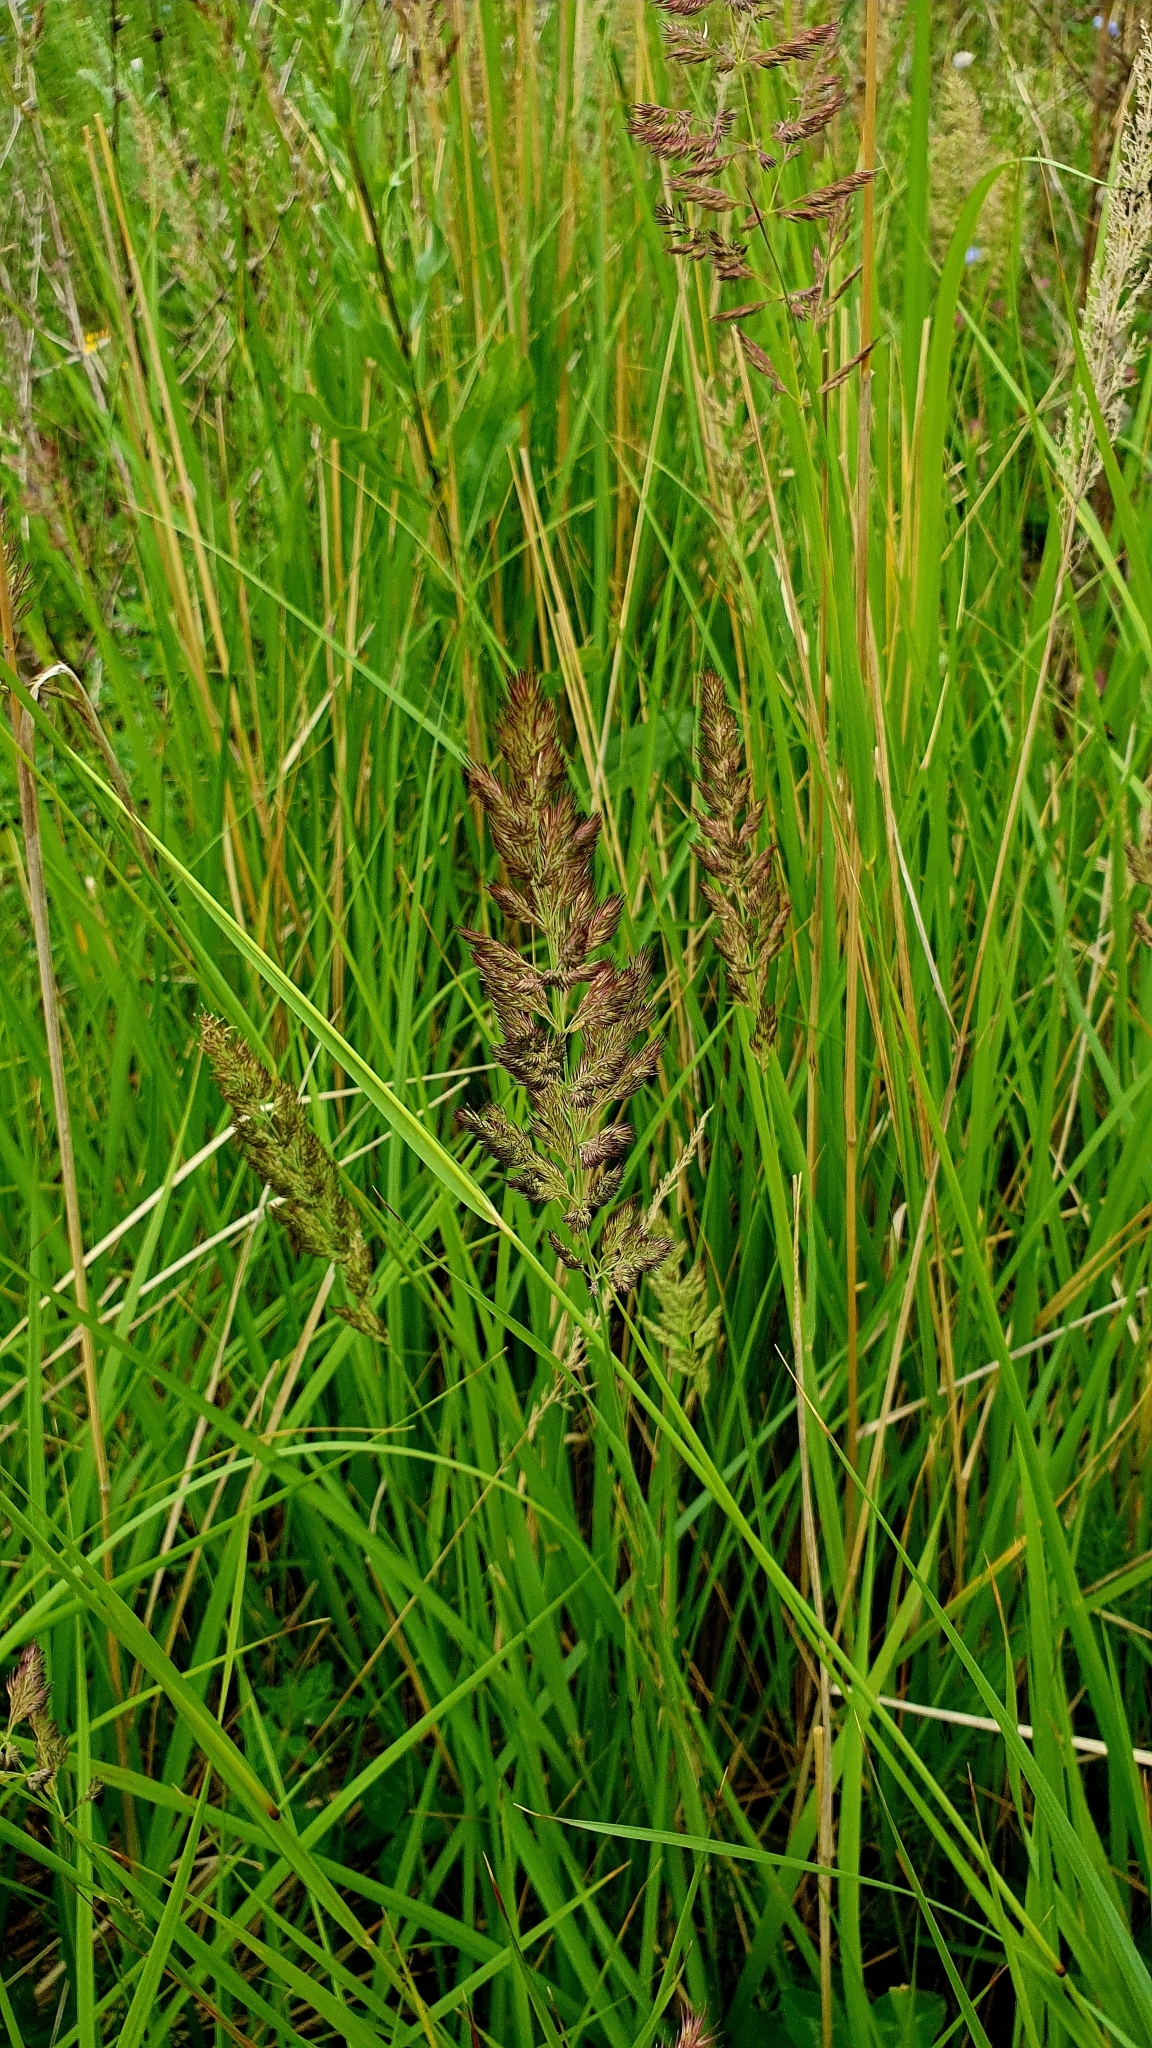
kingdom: Plantae
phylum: Tracheophyta
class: Liliopsida
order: Poales
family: Poaceae
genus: Calamagrostis
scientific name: Calamagrostis epigejos
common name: Wood small-reed
